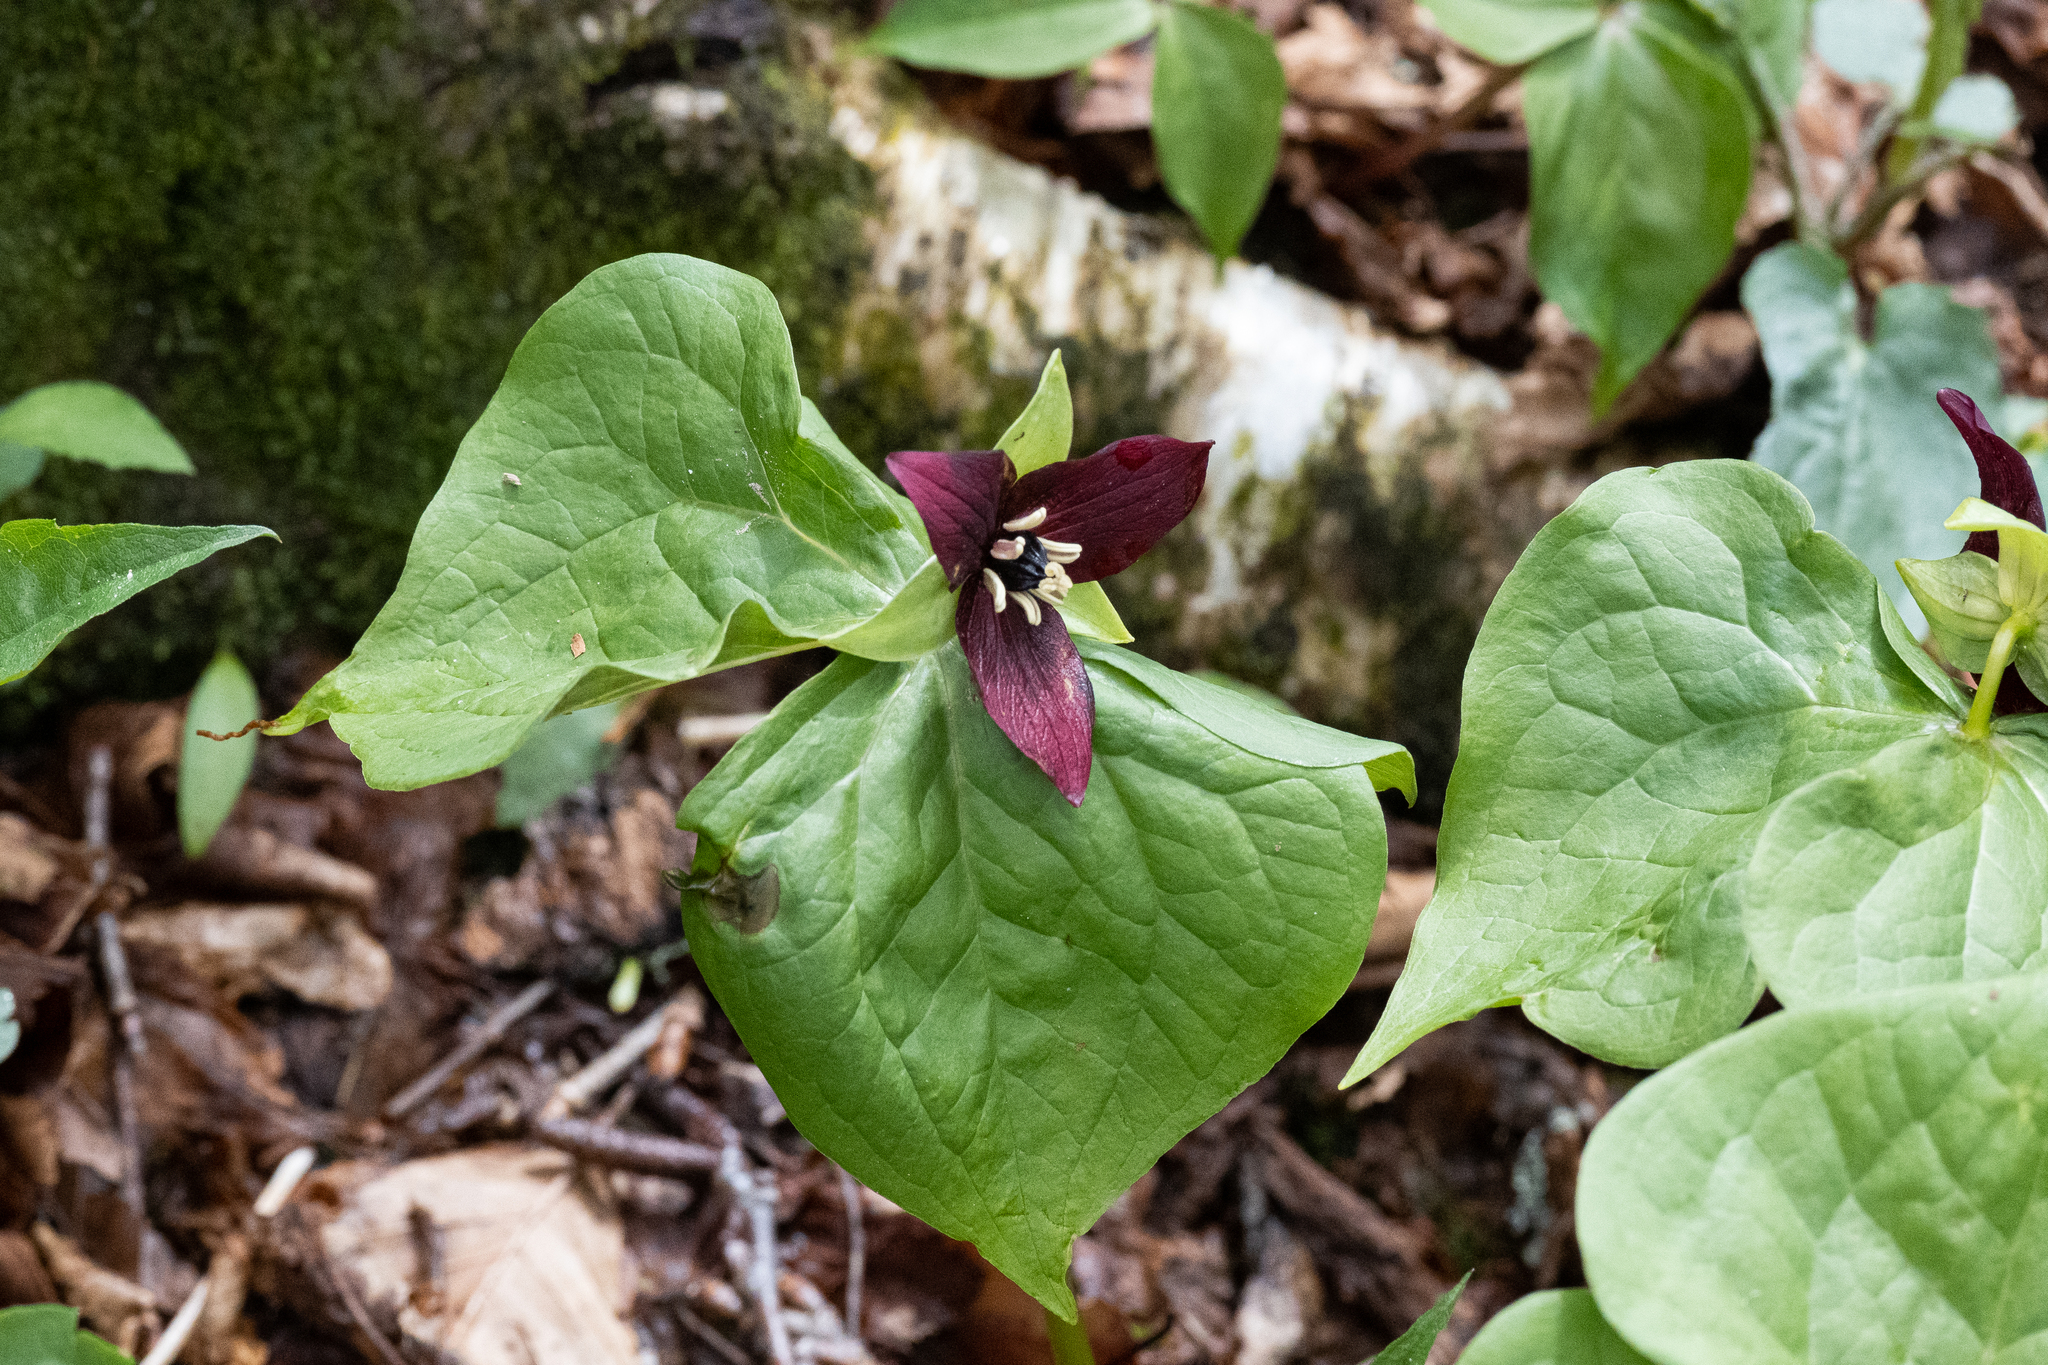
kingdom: Plantae
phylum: Tracheophyta
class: Liliopsida
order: Liliales
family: Melanthiaceae
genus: Trillium
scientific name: Trillium erectum
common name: Purple trillium
